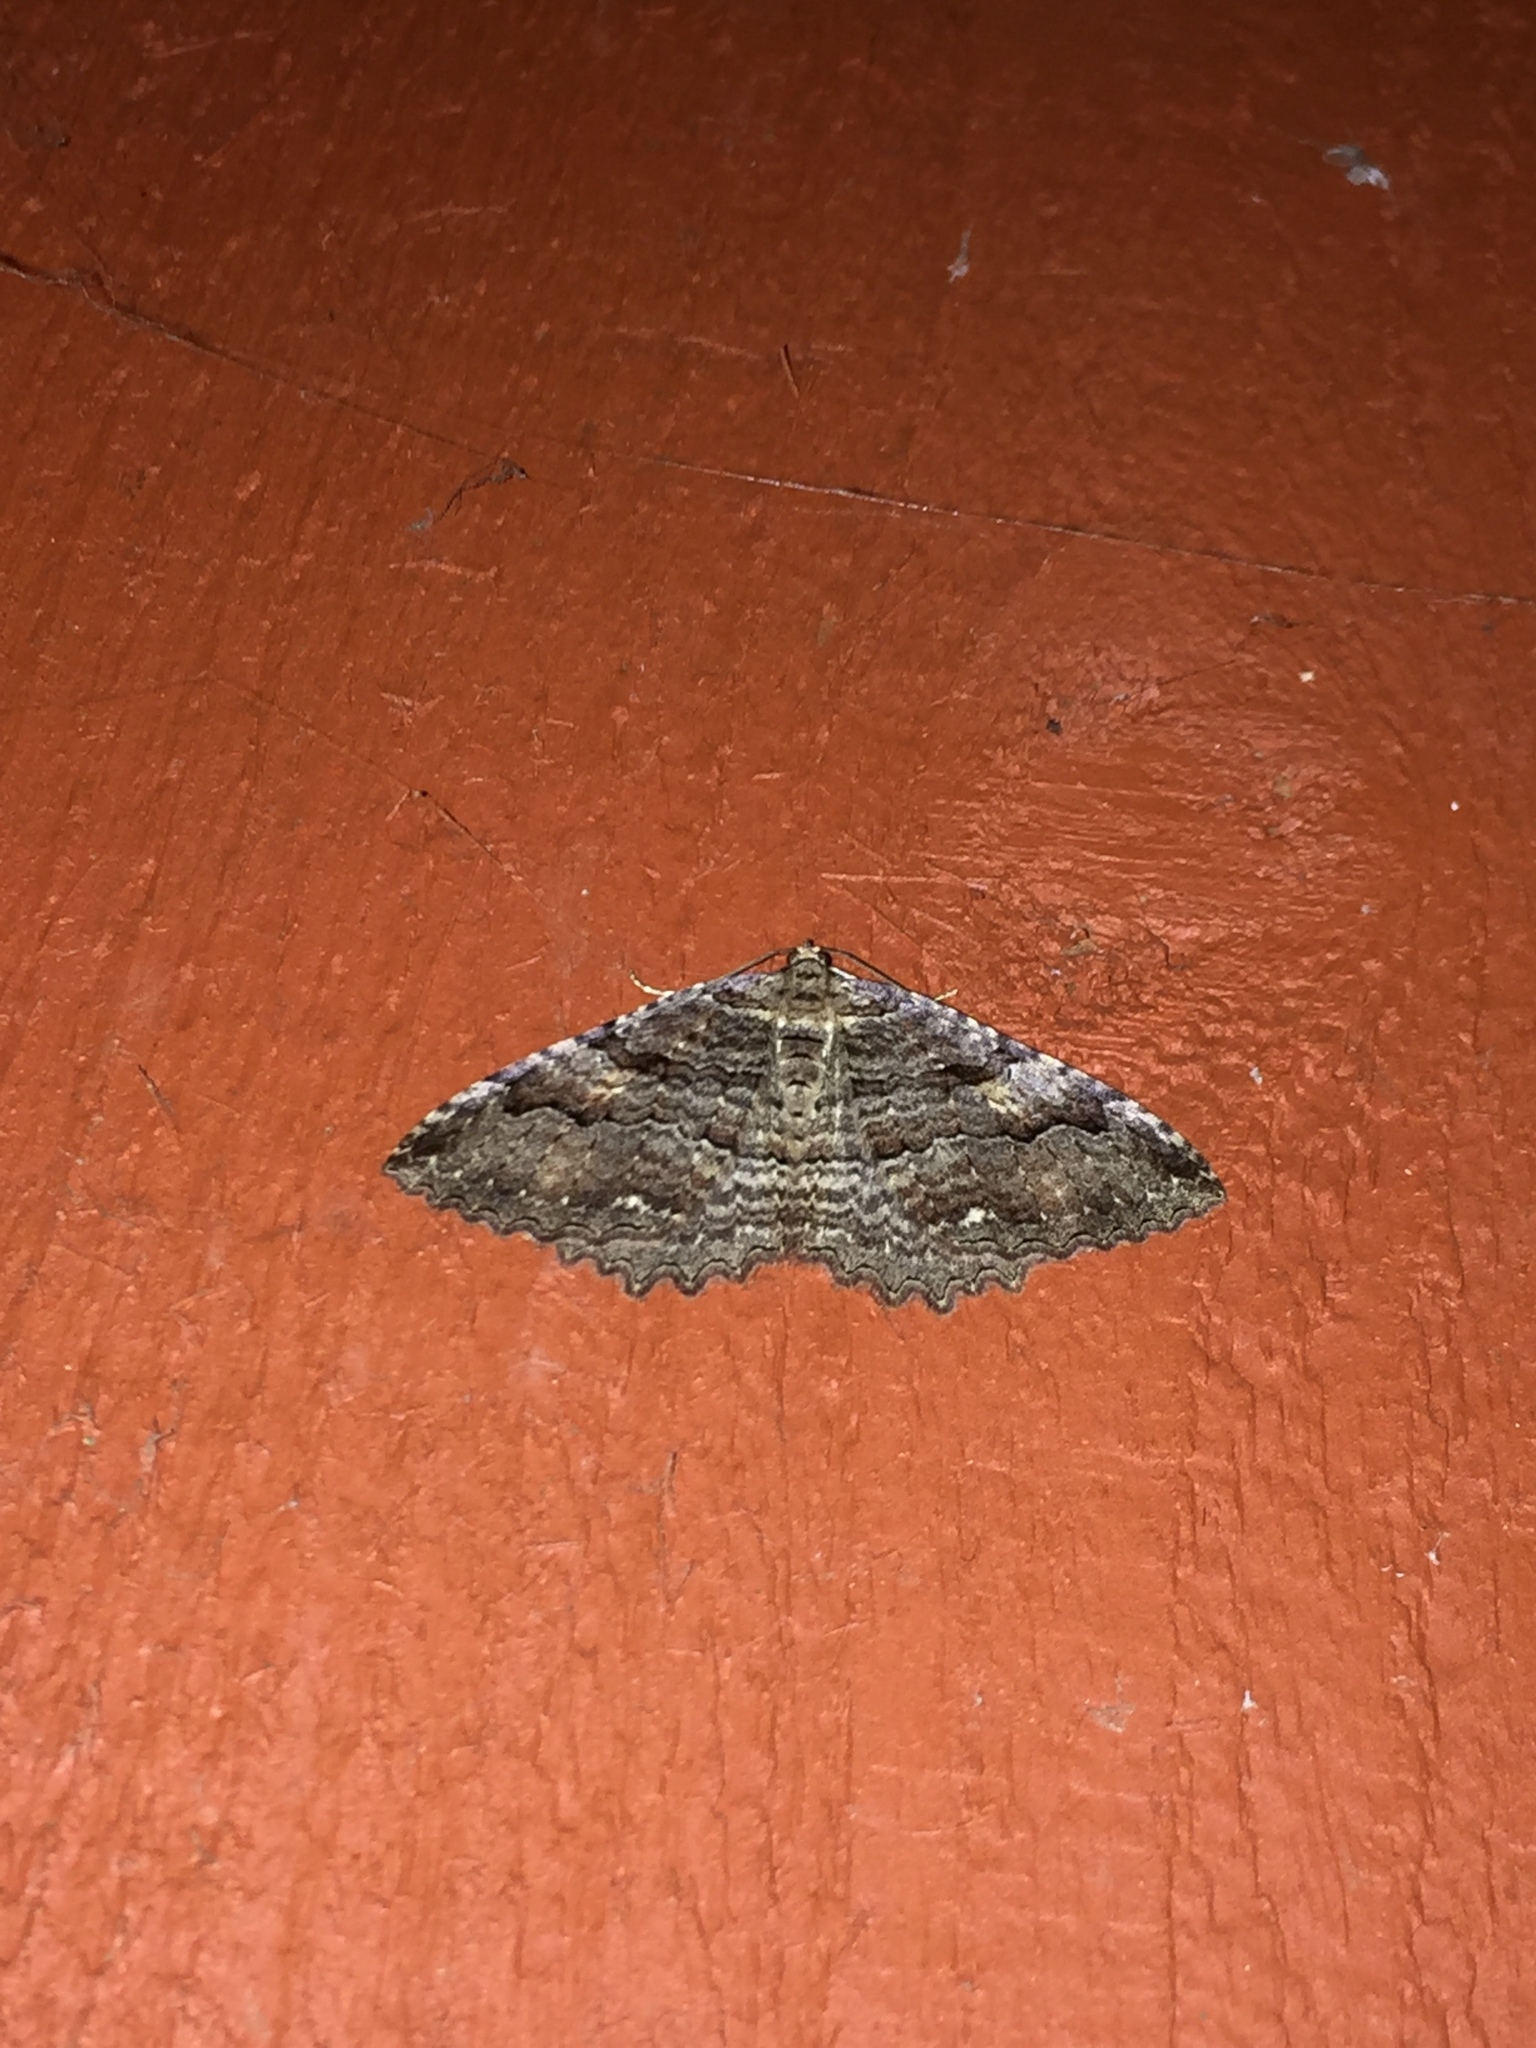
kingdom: Animalia
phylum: Arthropoda
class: Insecta
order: Lepidoptera
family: Geometridae
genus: Triphosa
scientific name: Triphosa haesitata
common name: Tissue moth
